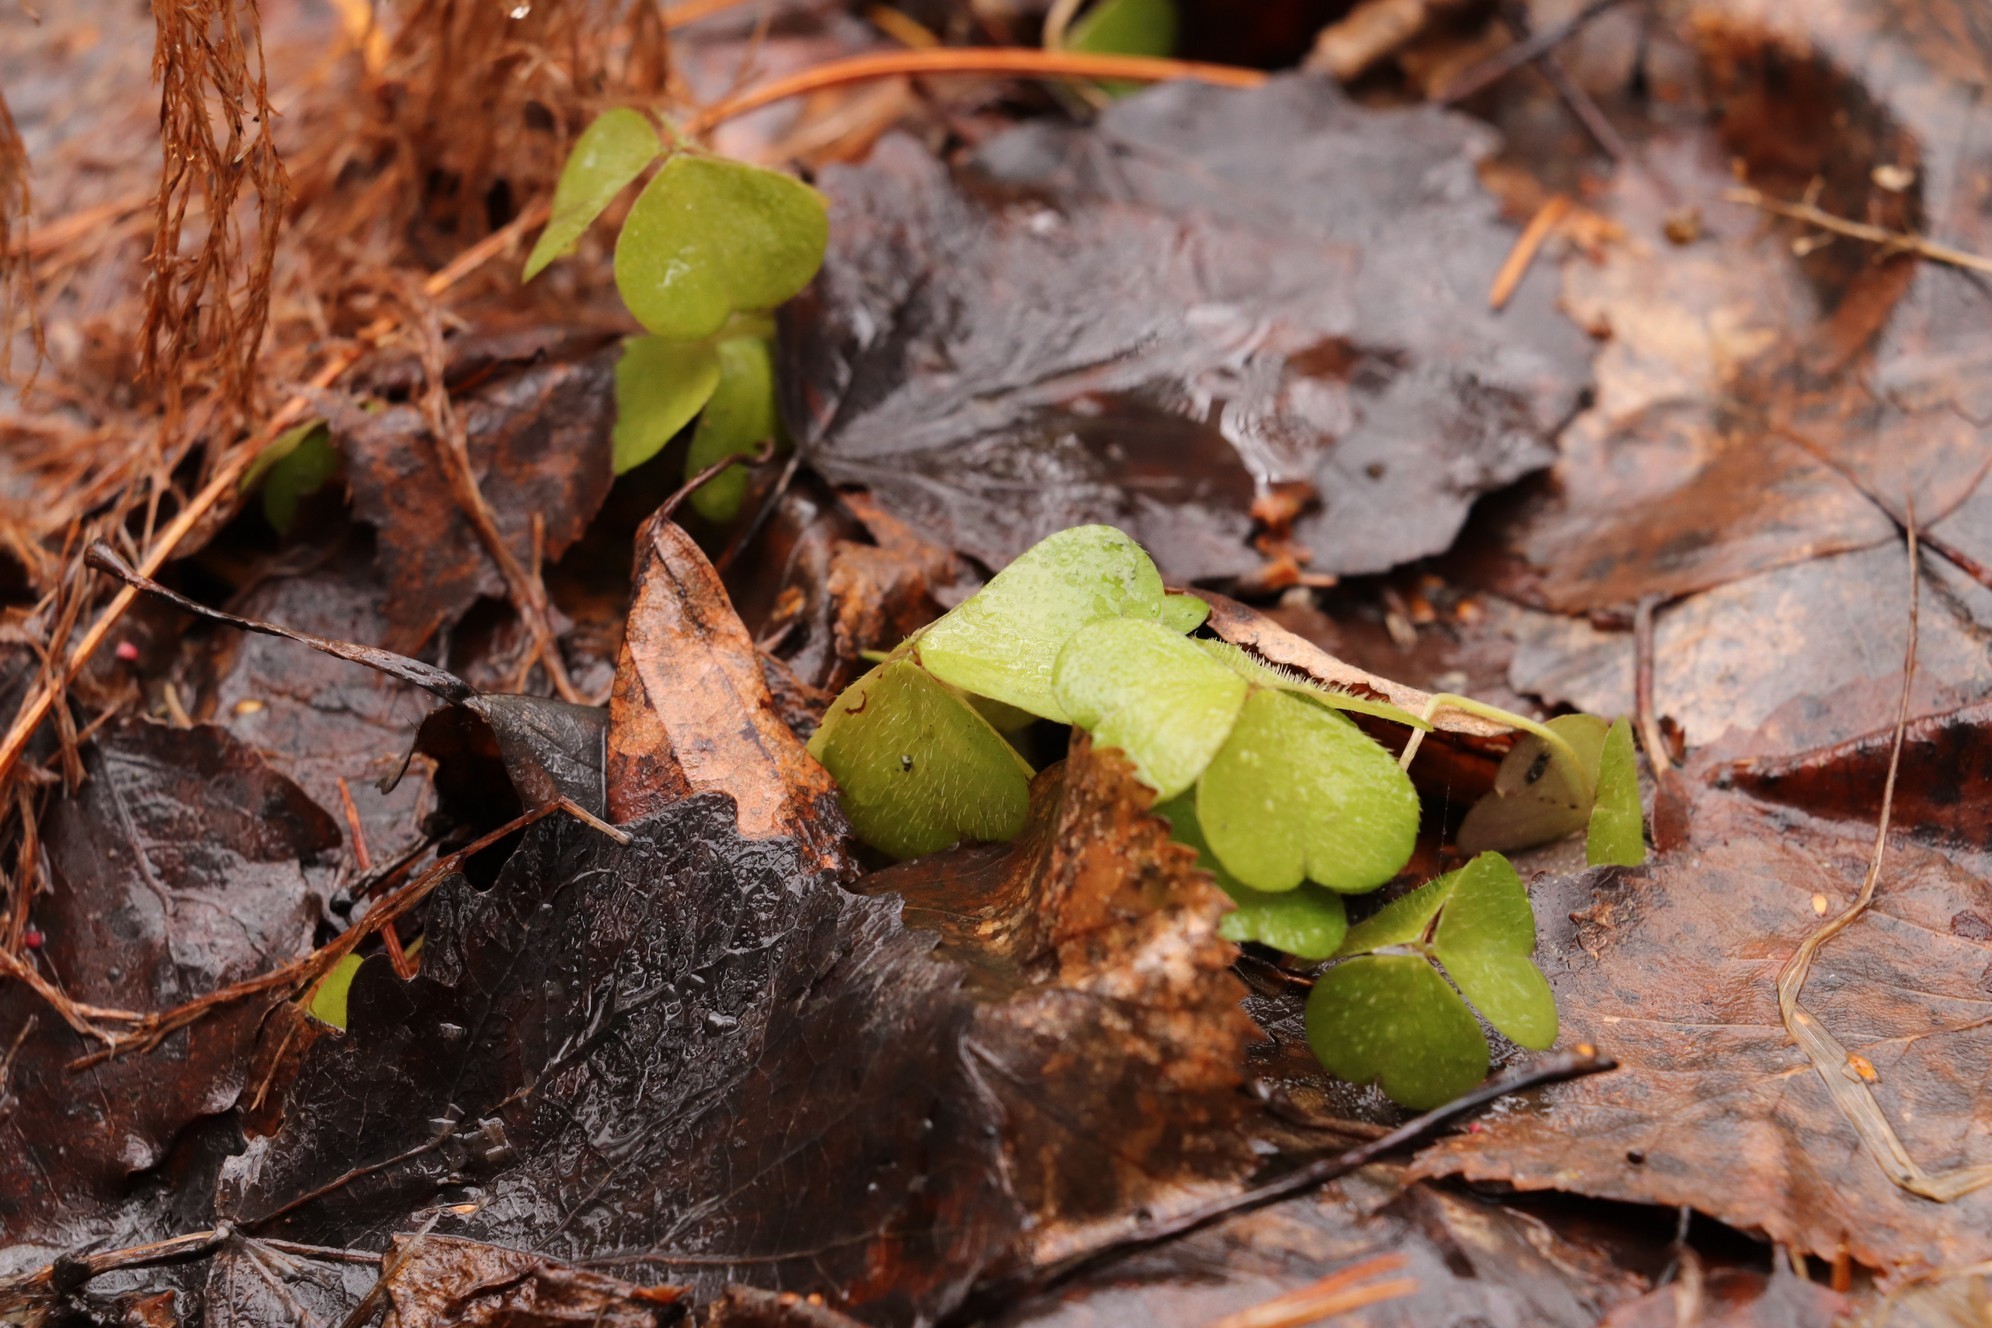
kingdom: Plantae
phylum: Tracheophyta
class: Magnoliopsida
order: Oxalidales
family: Oxalidaceae
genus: Oxalis
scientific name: Oxalis acetosella
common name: Wood-sorrel
